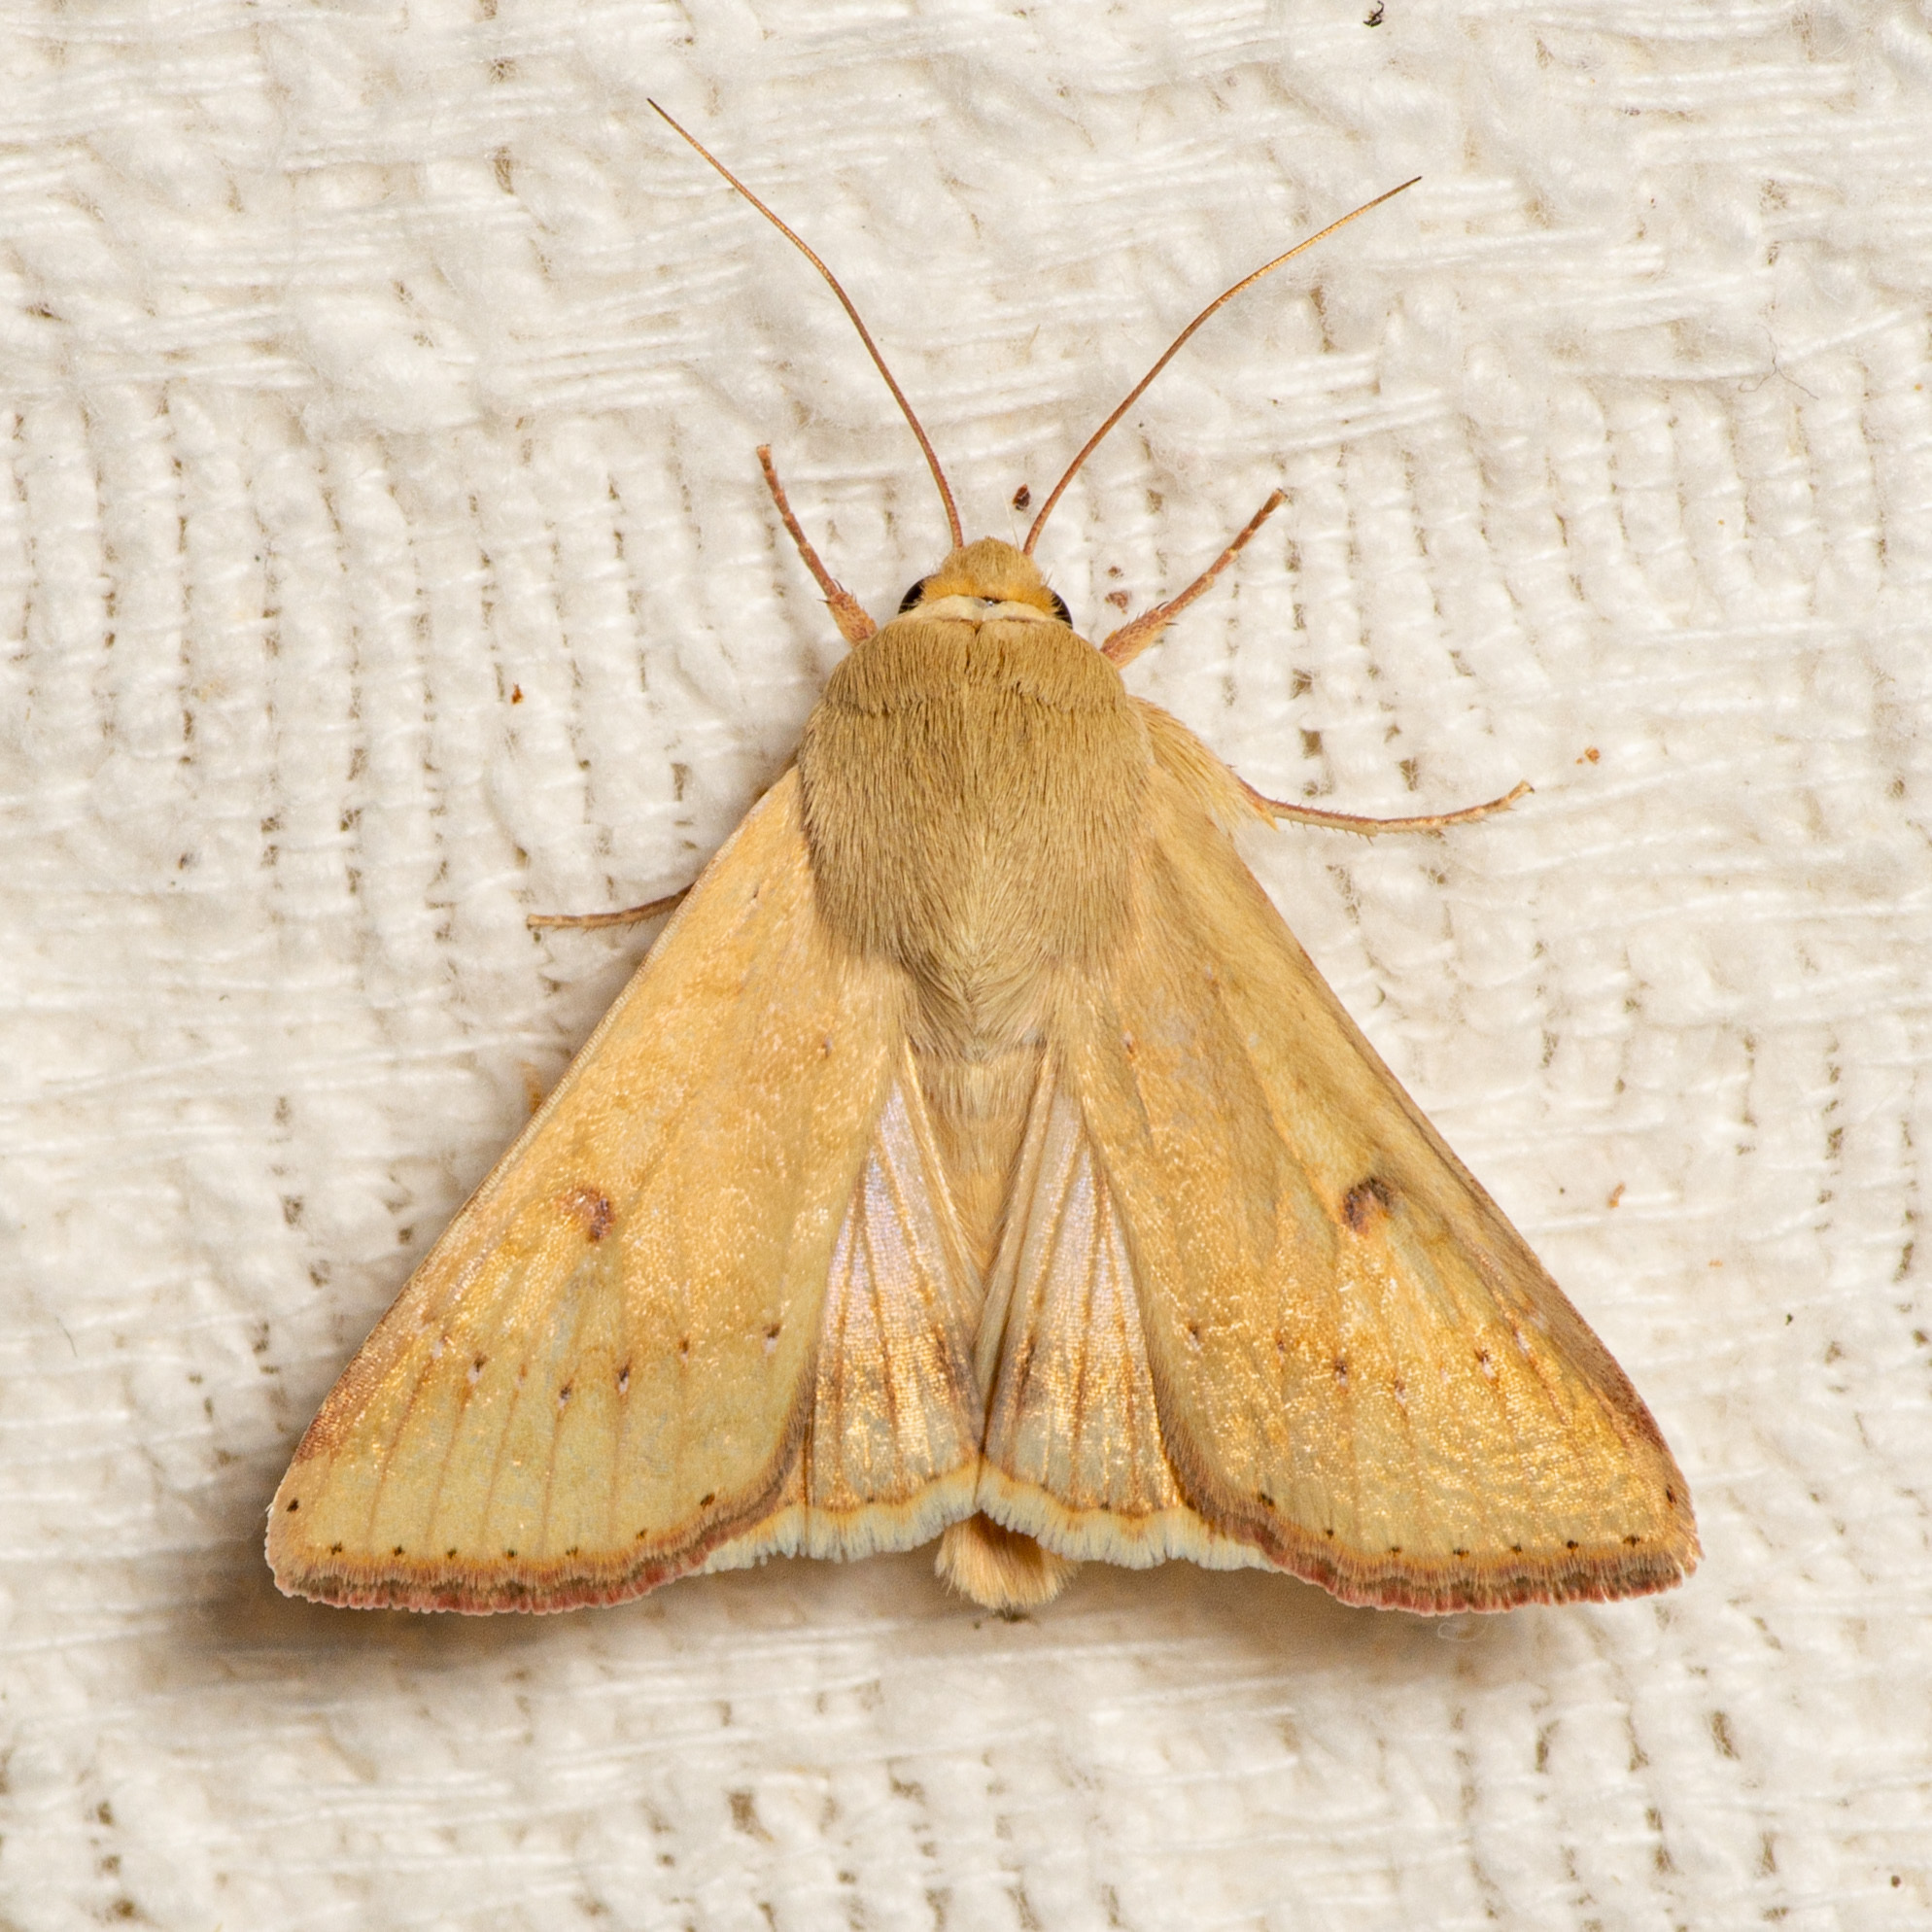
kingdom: Animalia
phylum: Arthropoda
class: Insecta
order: Lepidoptera
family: Noctuidae
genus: Helicoverpa
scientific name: Helicoverpa zea
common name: Bollworm
